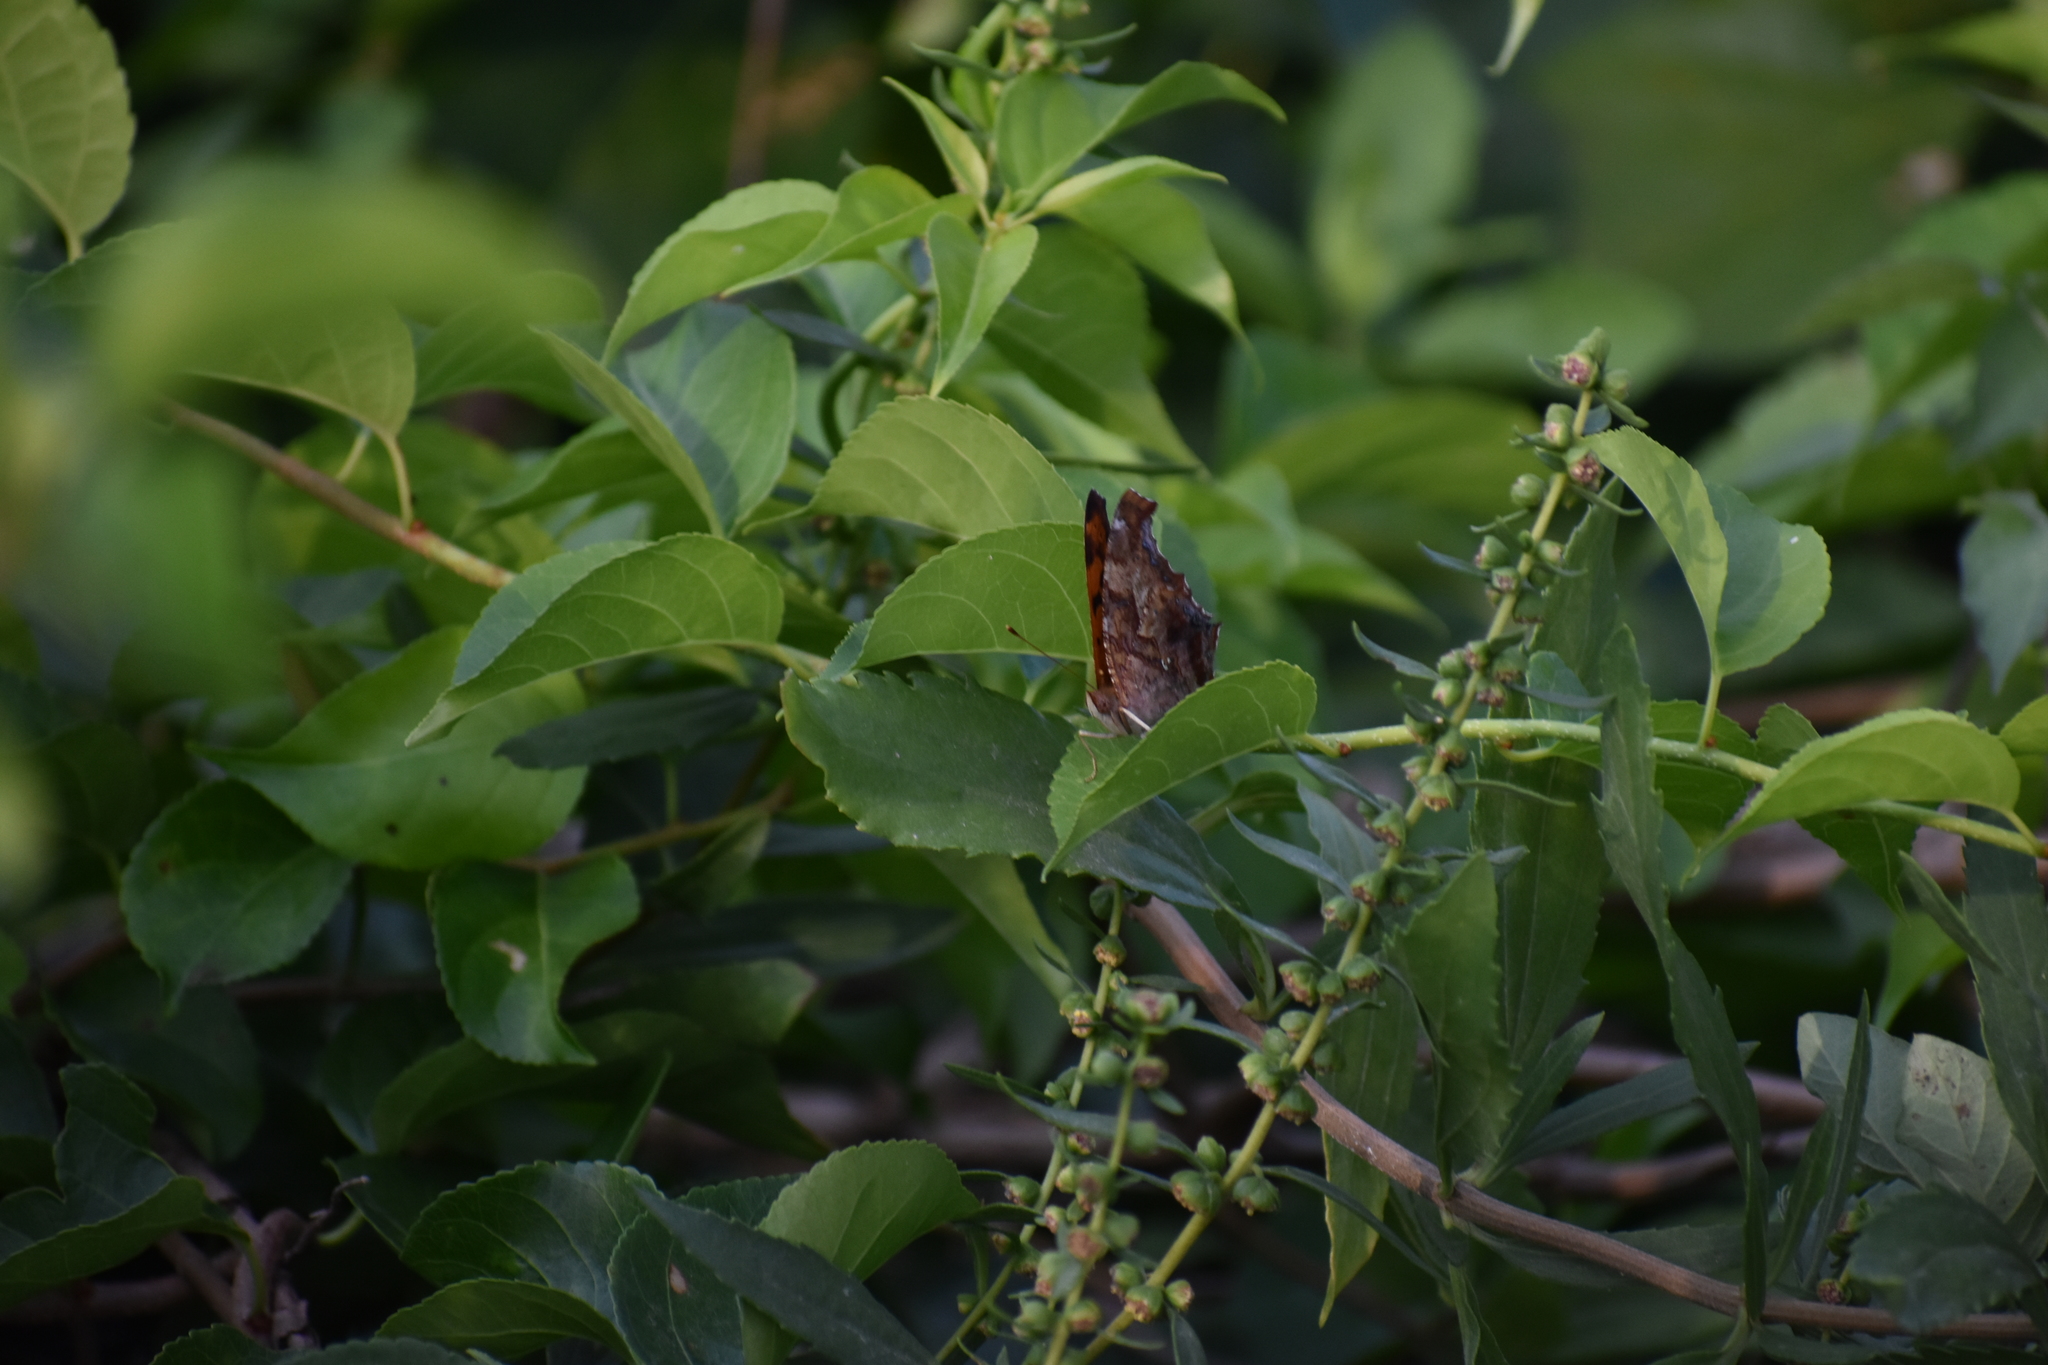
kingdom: Animalia
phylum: Arthropoda
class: Insecta
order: Lepidoptera
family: Nymphalidae
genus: Polygonia
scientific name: Polygonia interrogationis
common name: Question mark
